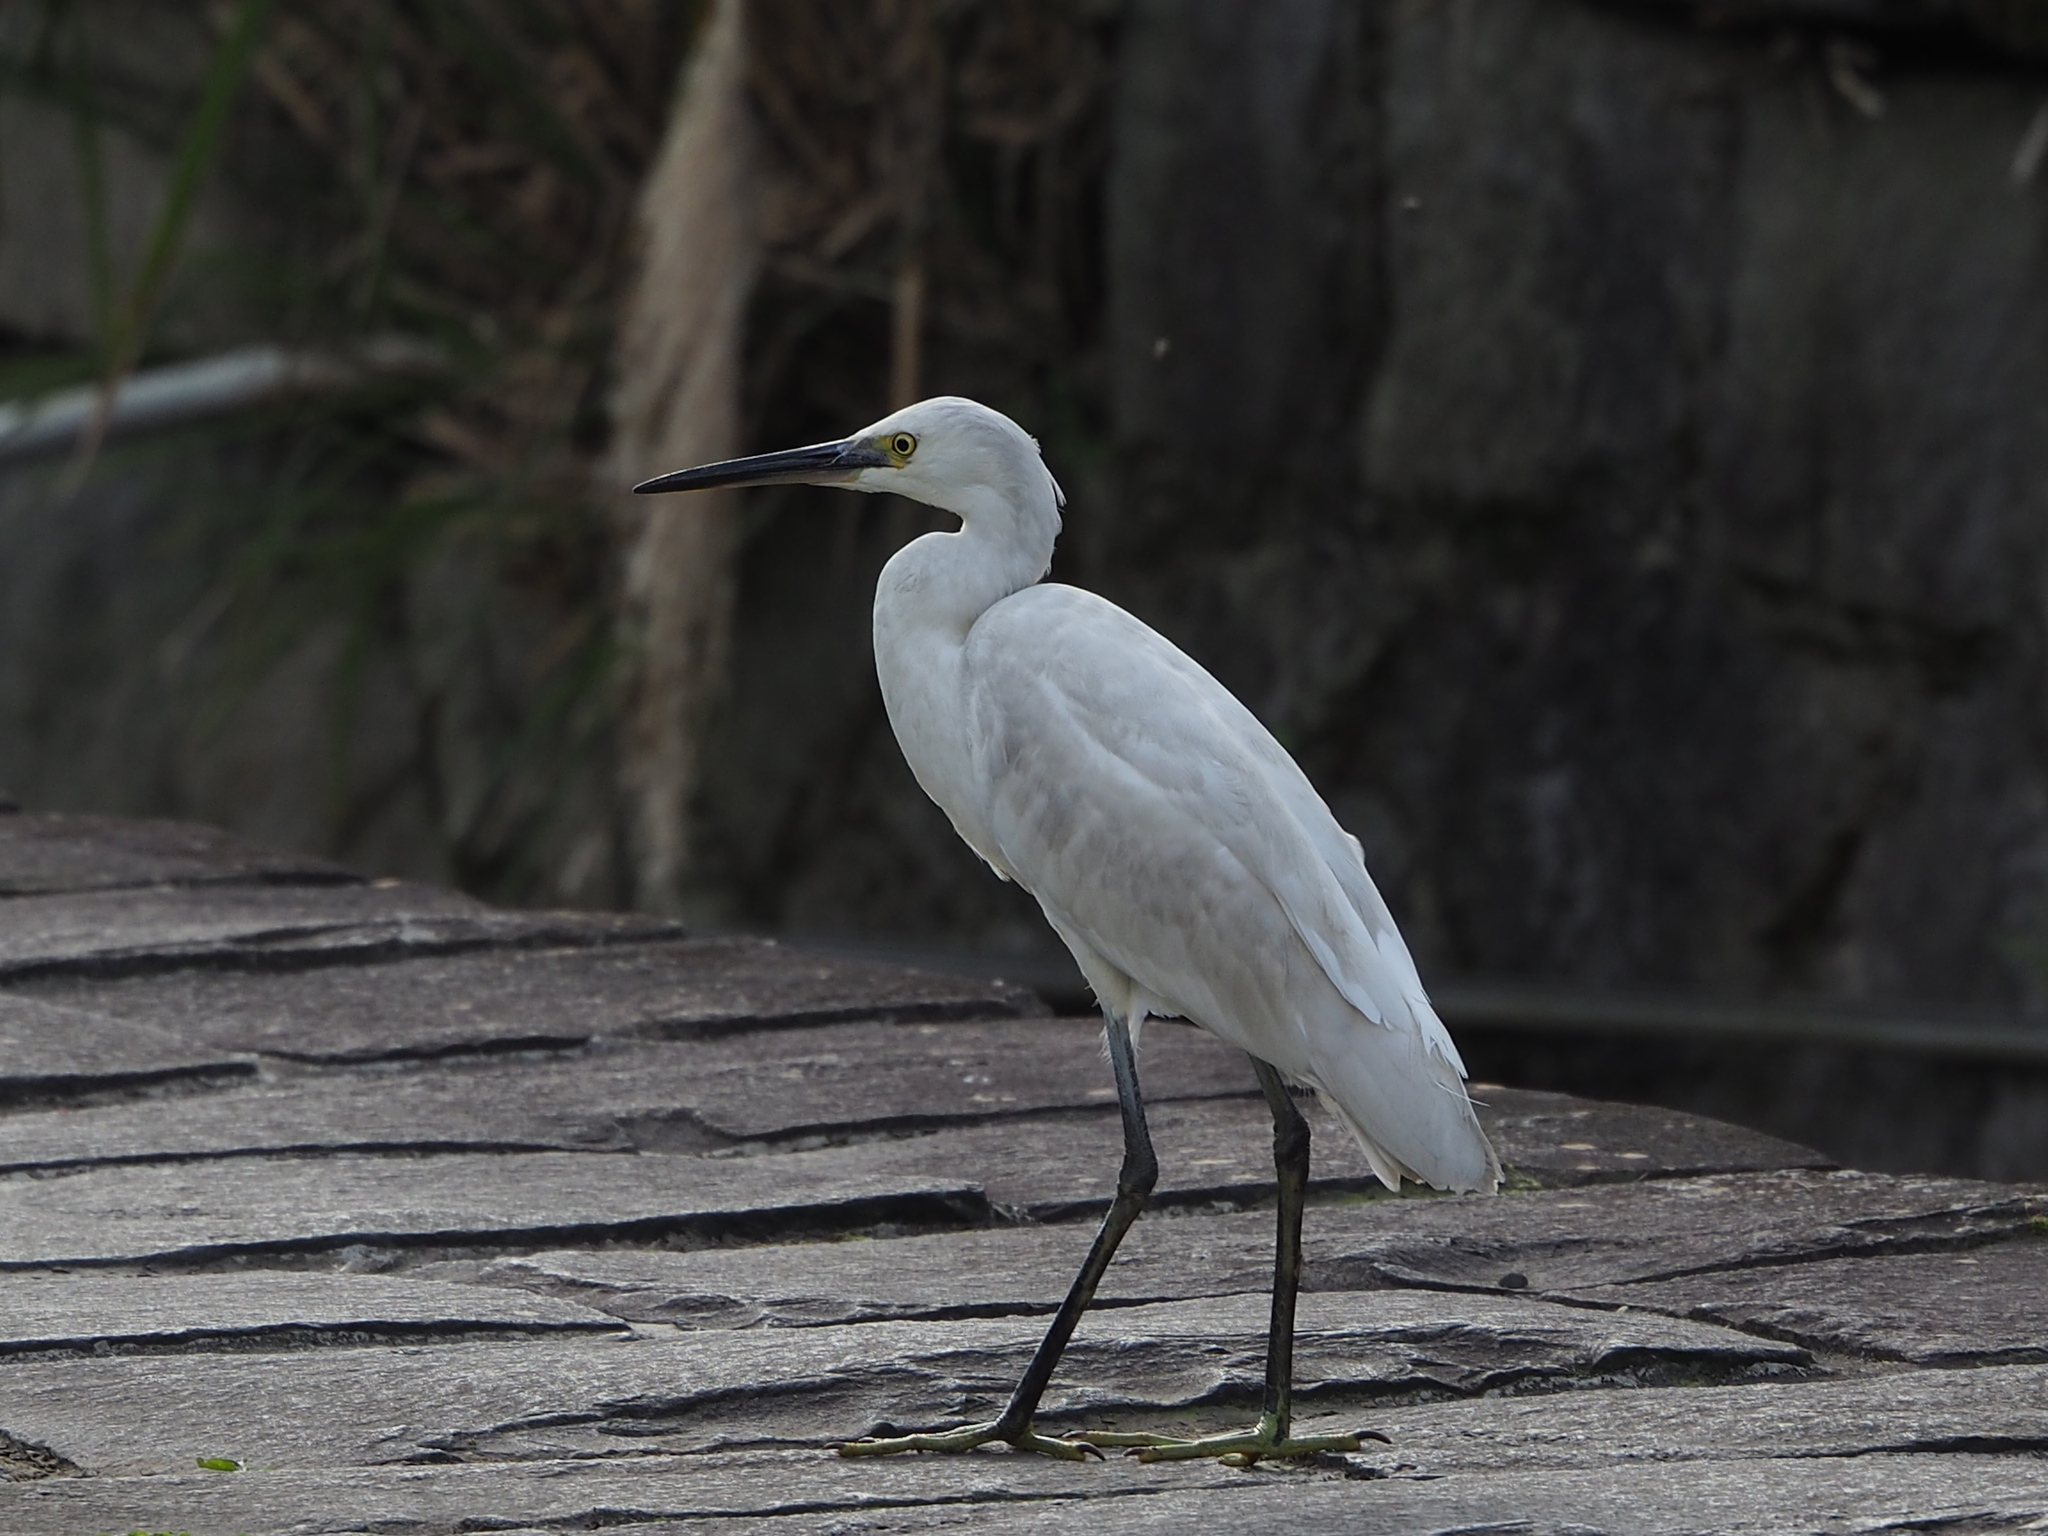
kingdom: Animalia
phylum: Chordata
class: Aves
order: Pelecaniformes
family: Ardeidae
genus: Egretta
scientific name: Egretta garzetta
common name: Little egret
